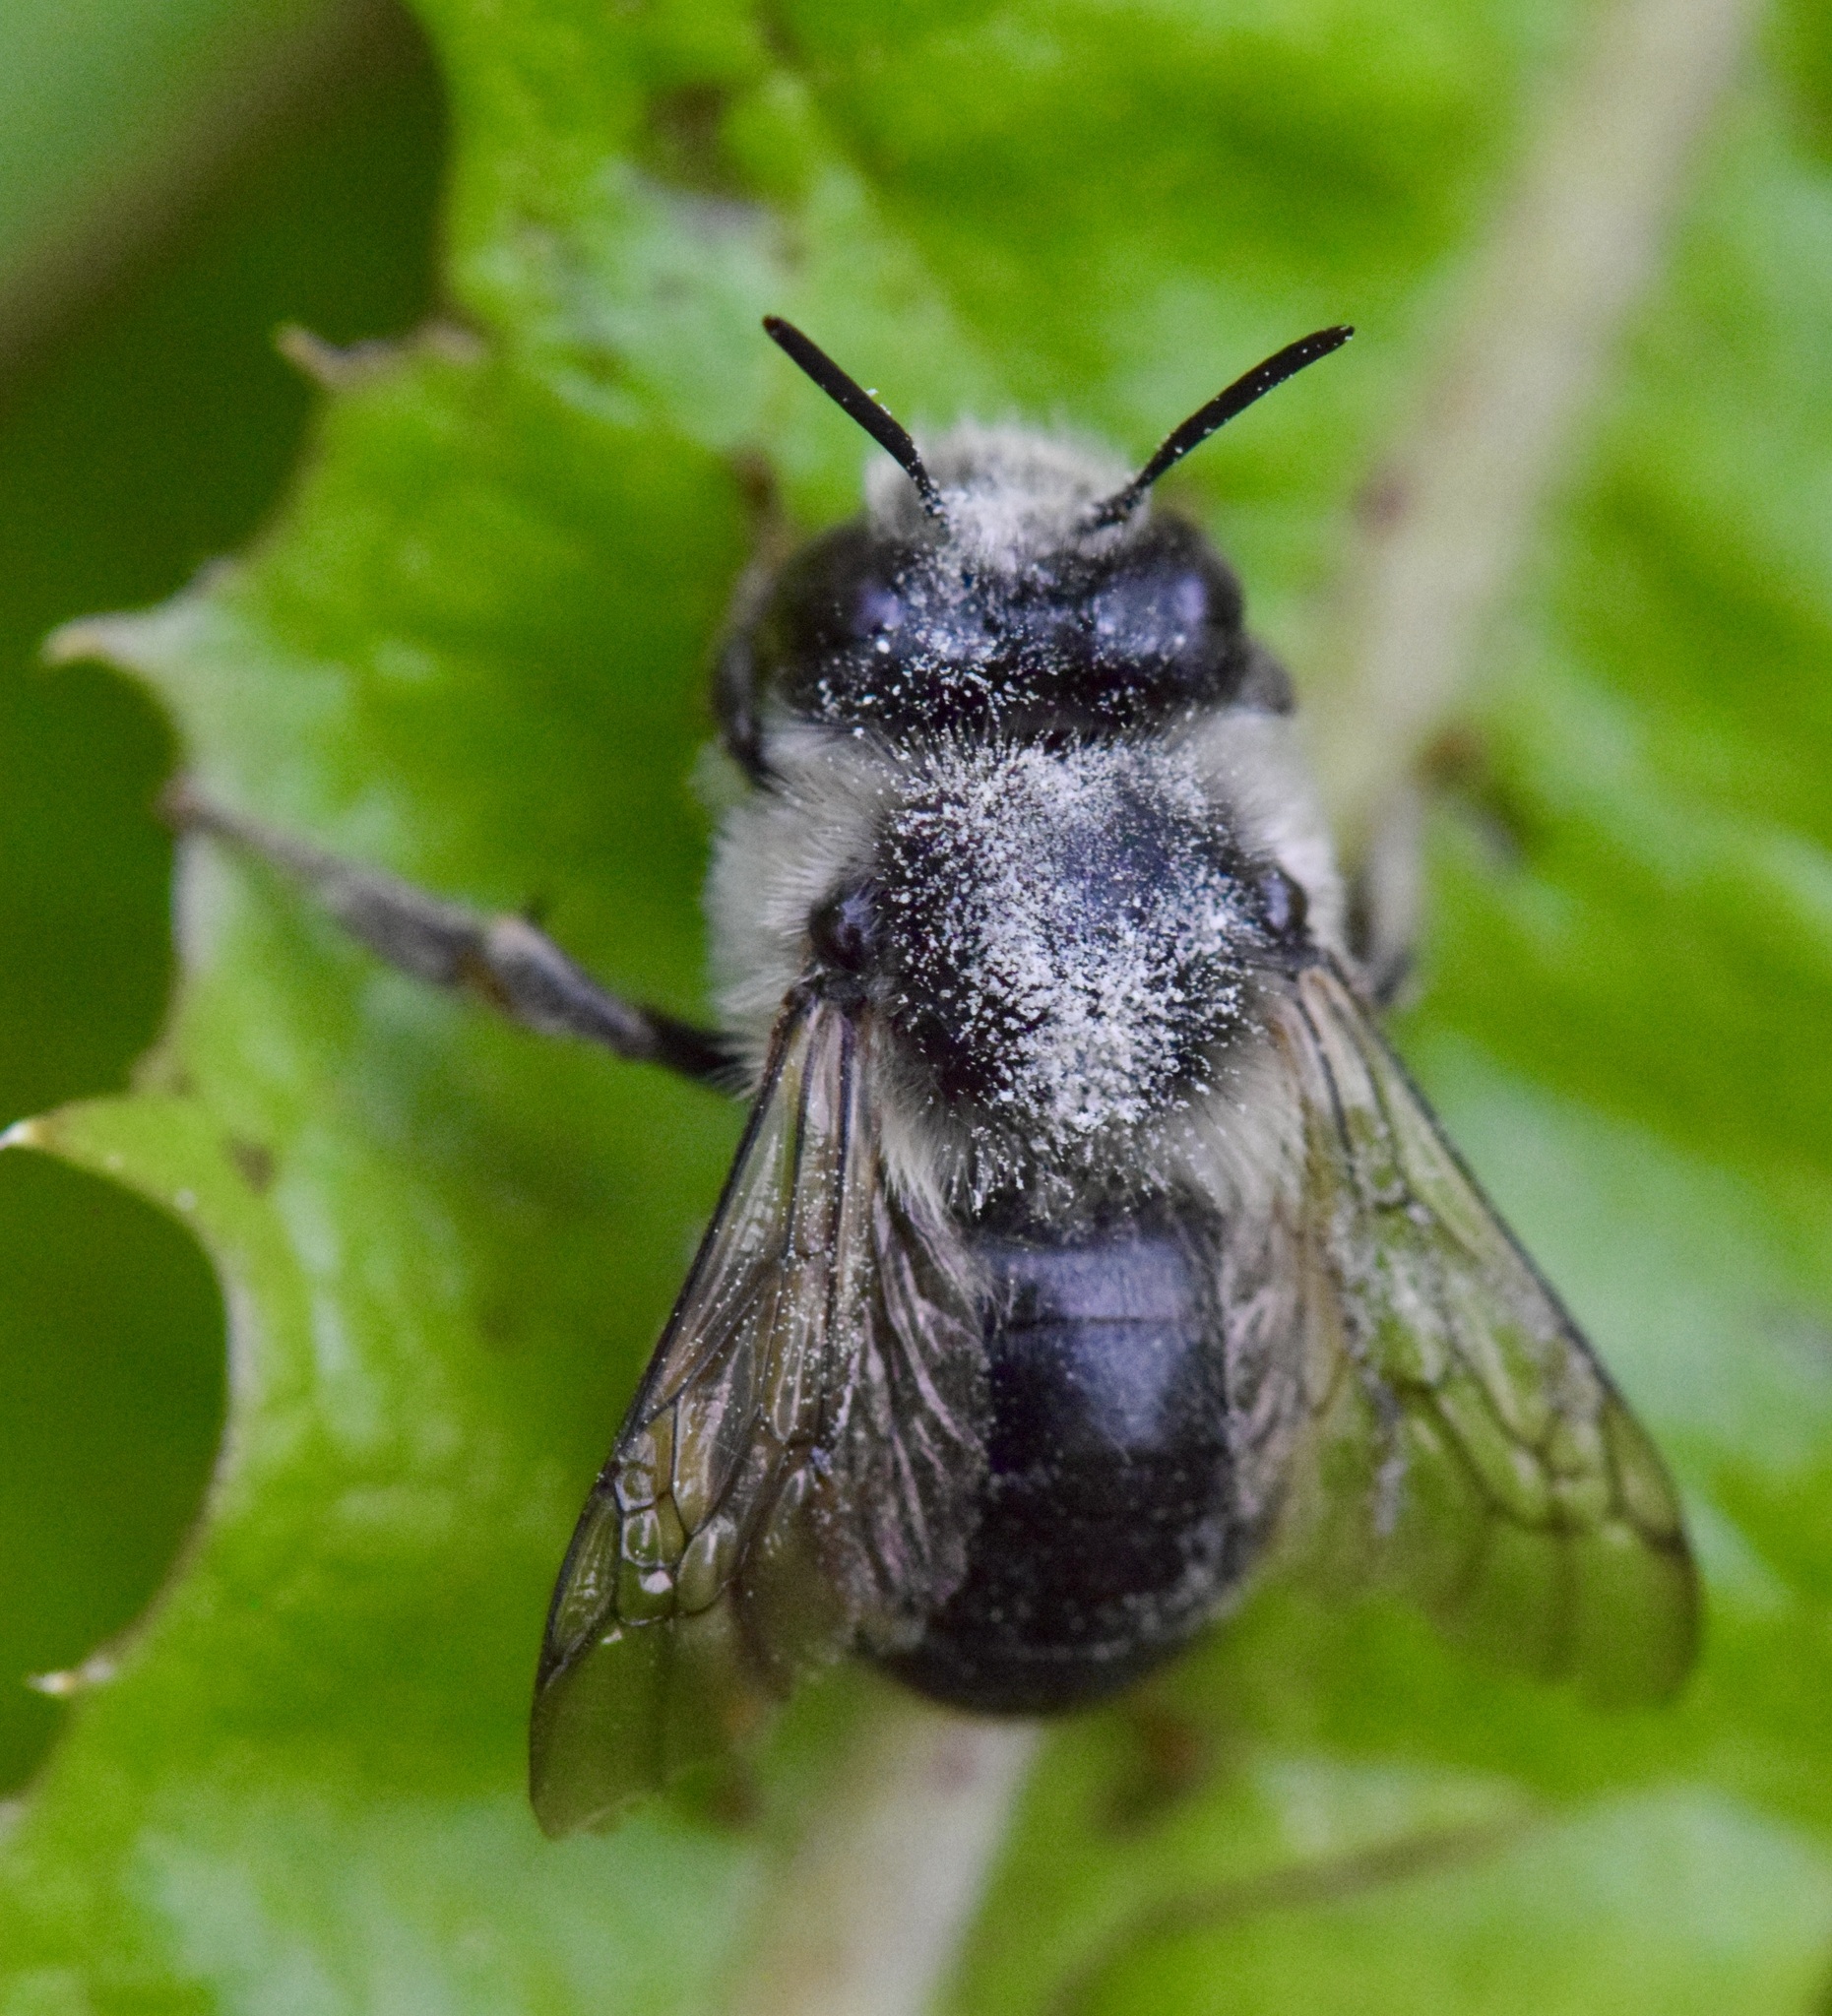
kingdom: Animalia
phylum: Arthropoda
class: Insecta
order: Hymenoptera
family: Apidae
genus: Anthophora
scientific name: Anthophora terminalis
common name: Orange-tipped wood-digger bee
